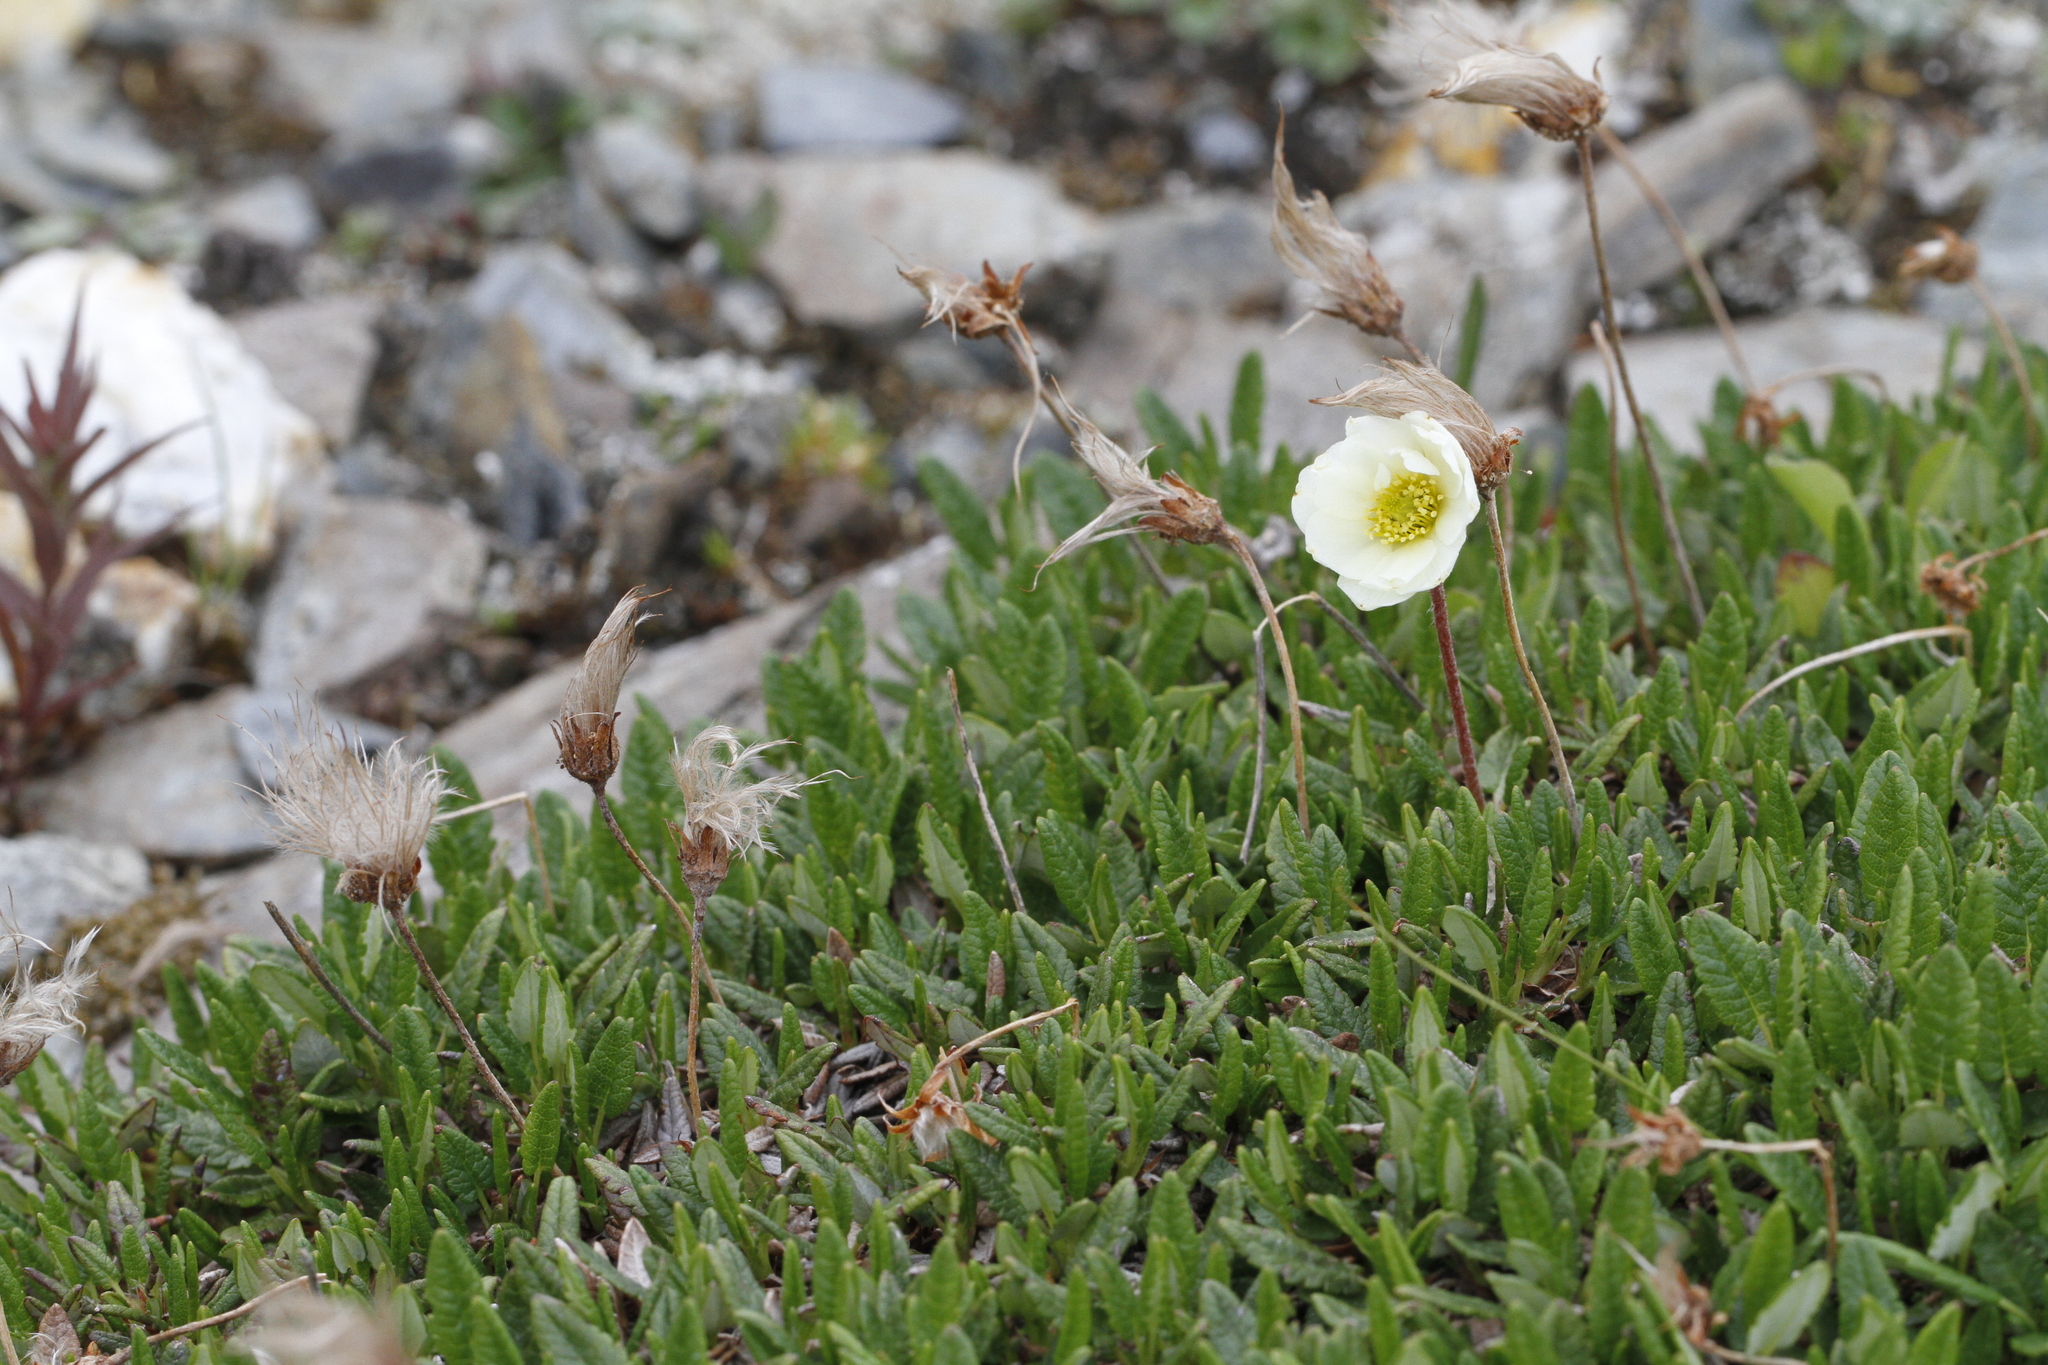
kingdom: Plantae
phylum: Tracheophyta
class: Magnoliopsida
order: Rosales
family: Rosaceae
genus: Dryas
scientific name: Dryas octopetala
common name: Eight-petal mountain-avens
